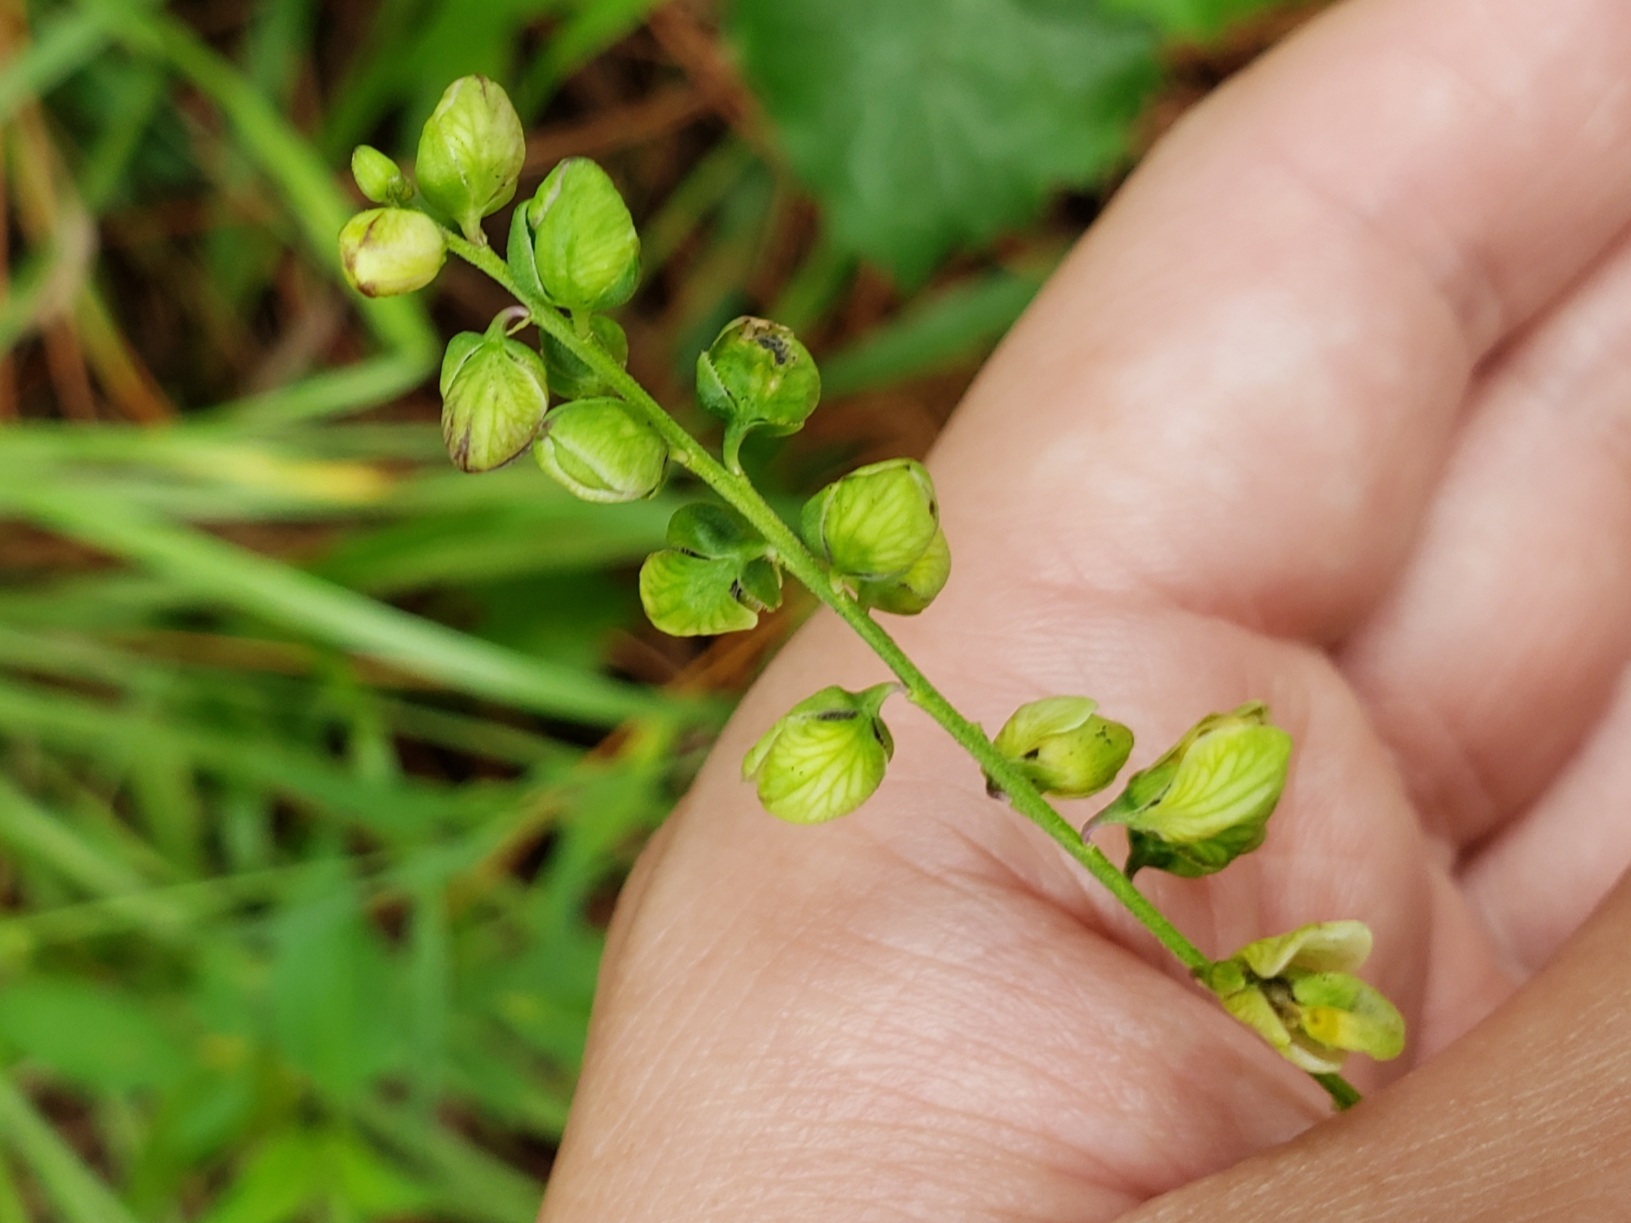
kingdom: Plantae
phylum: Tracheophyta
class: Magnoliopsida
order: Fabales
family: Polygalaceae
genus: Asemeia
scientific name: Asemeia grandiflora
